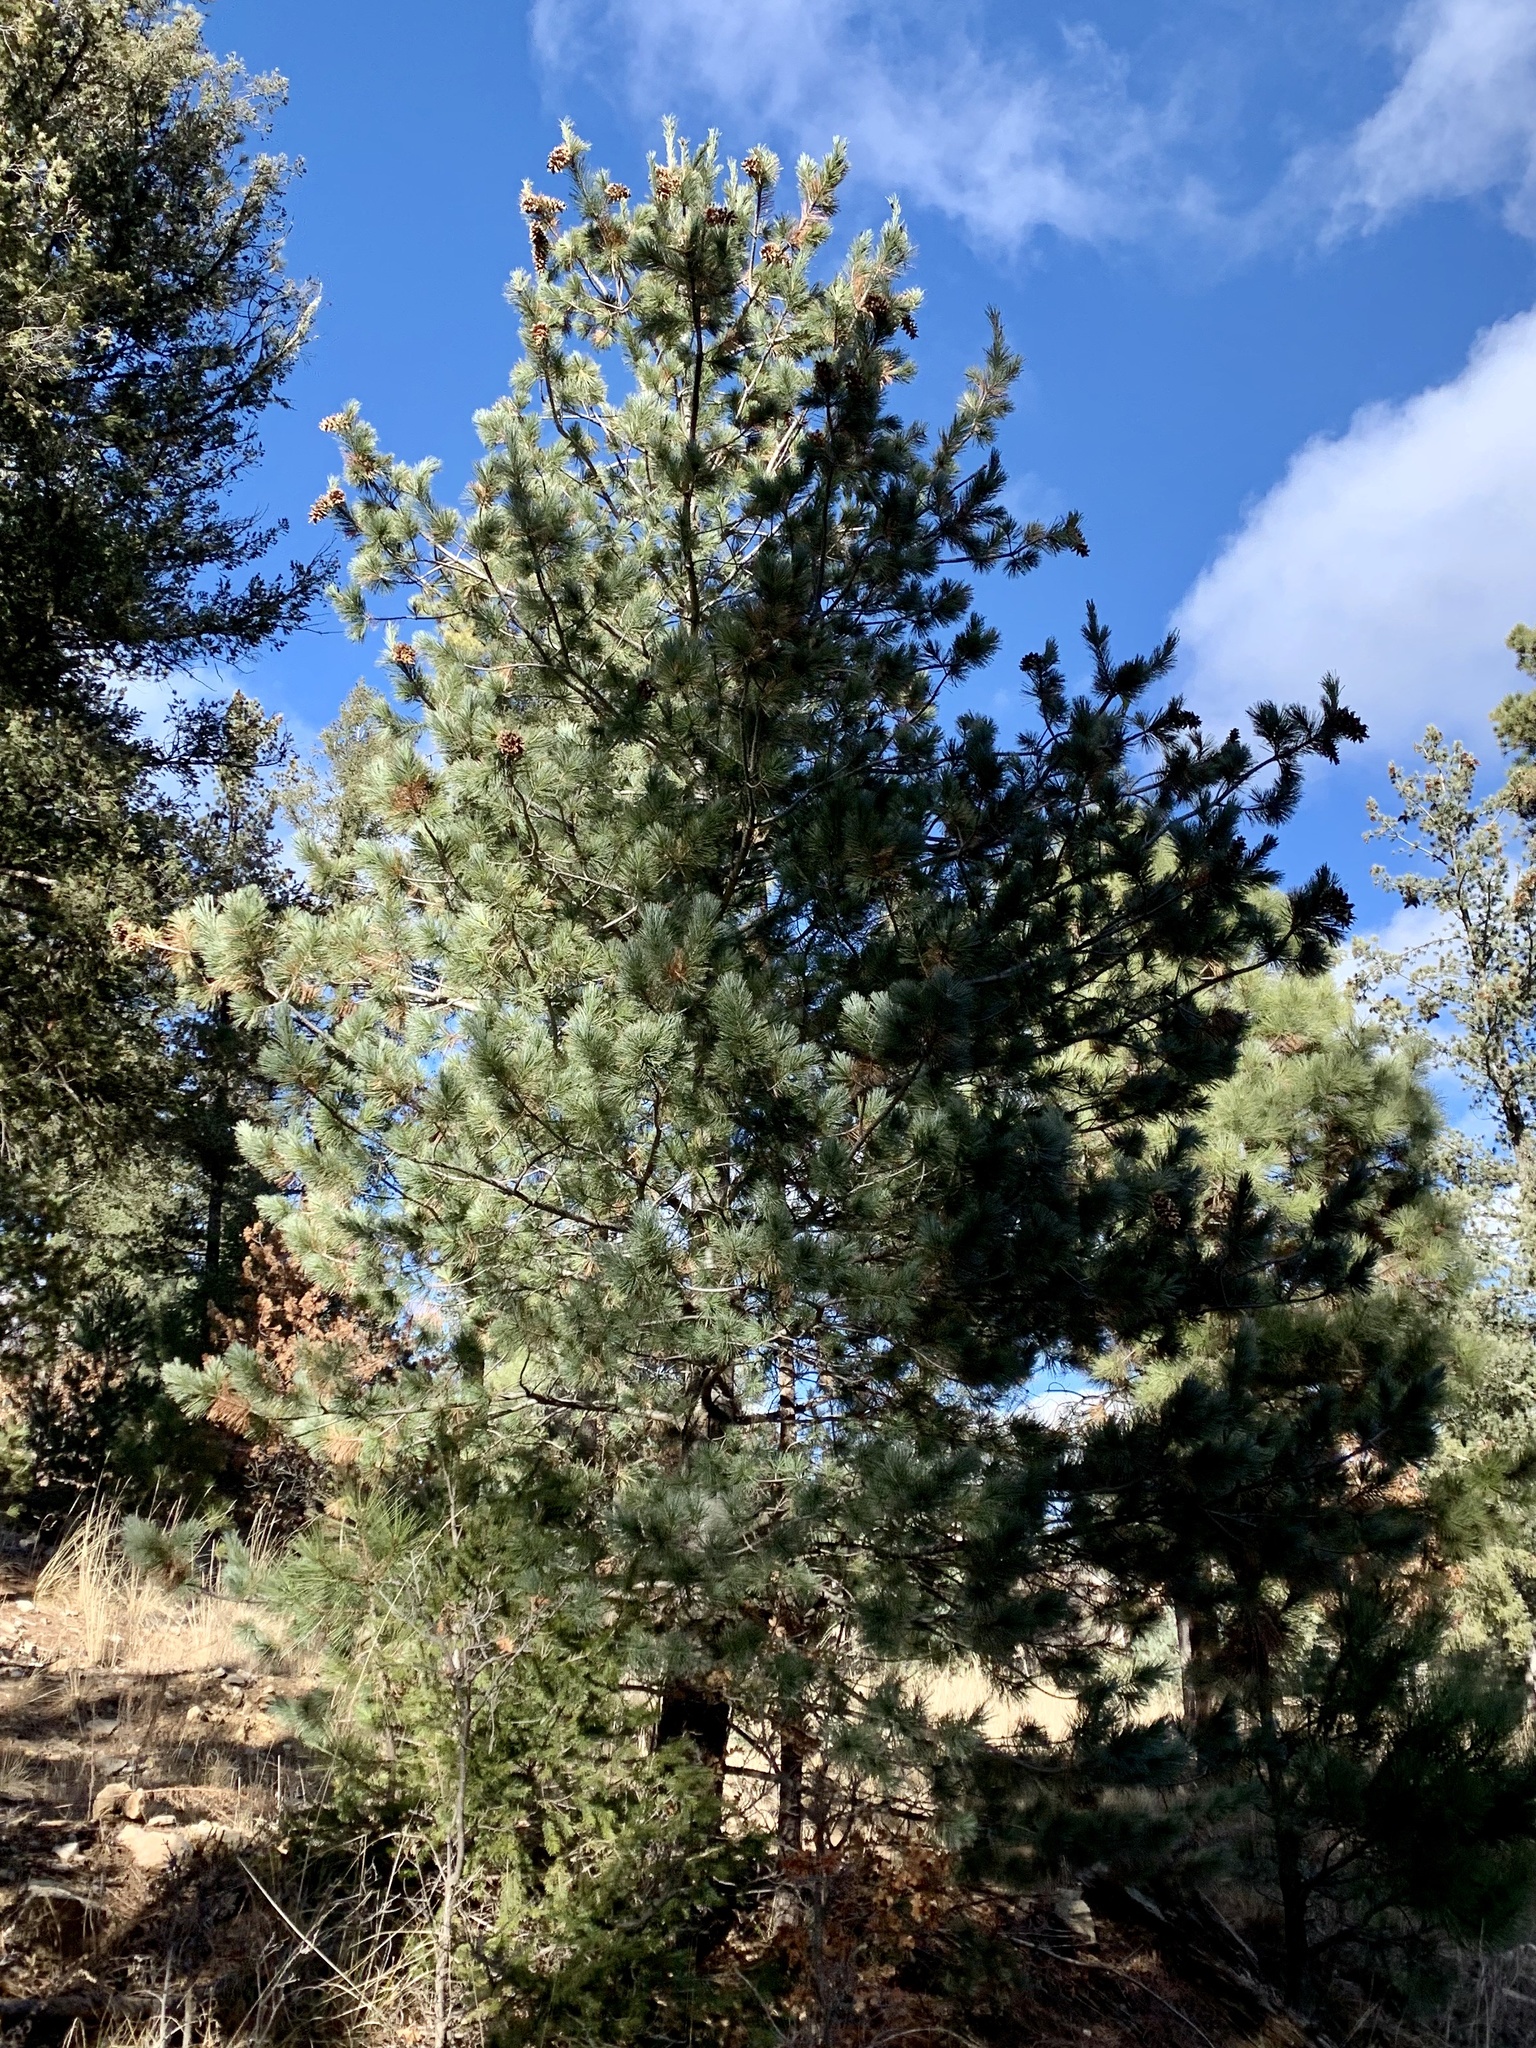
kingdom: Plantae
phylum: Tracheophyta
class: Pinopsida
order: Pinales
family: Pinaceae
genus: Pinus
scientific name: Pinus strobiformis
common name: Southwestern white pine
